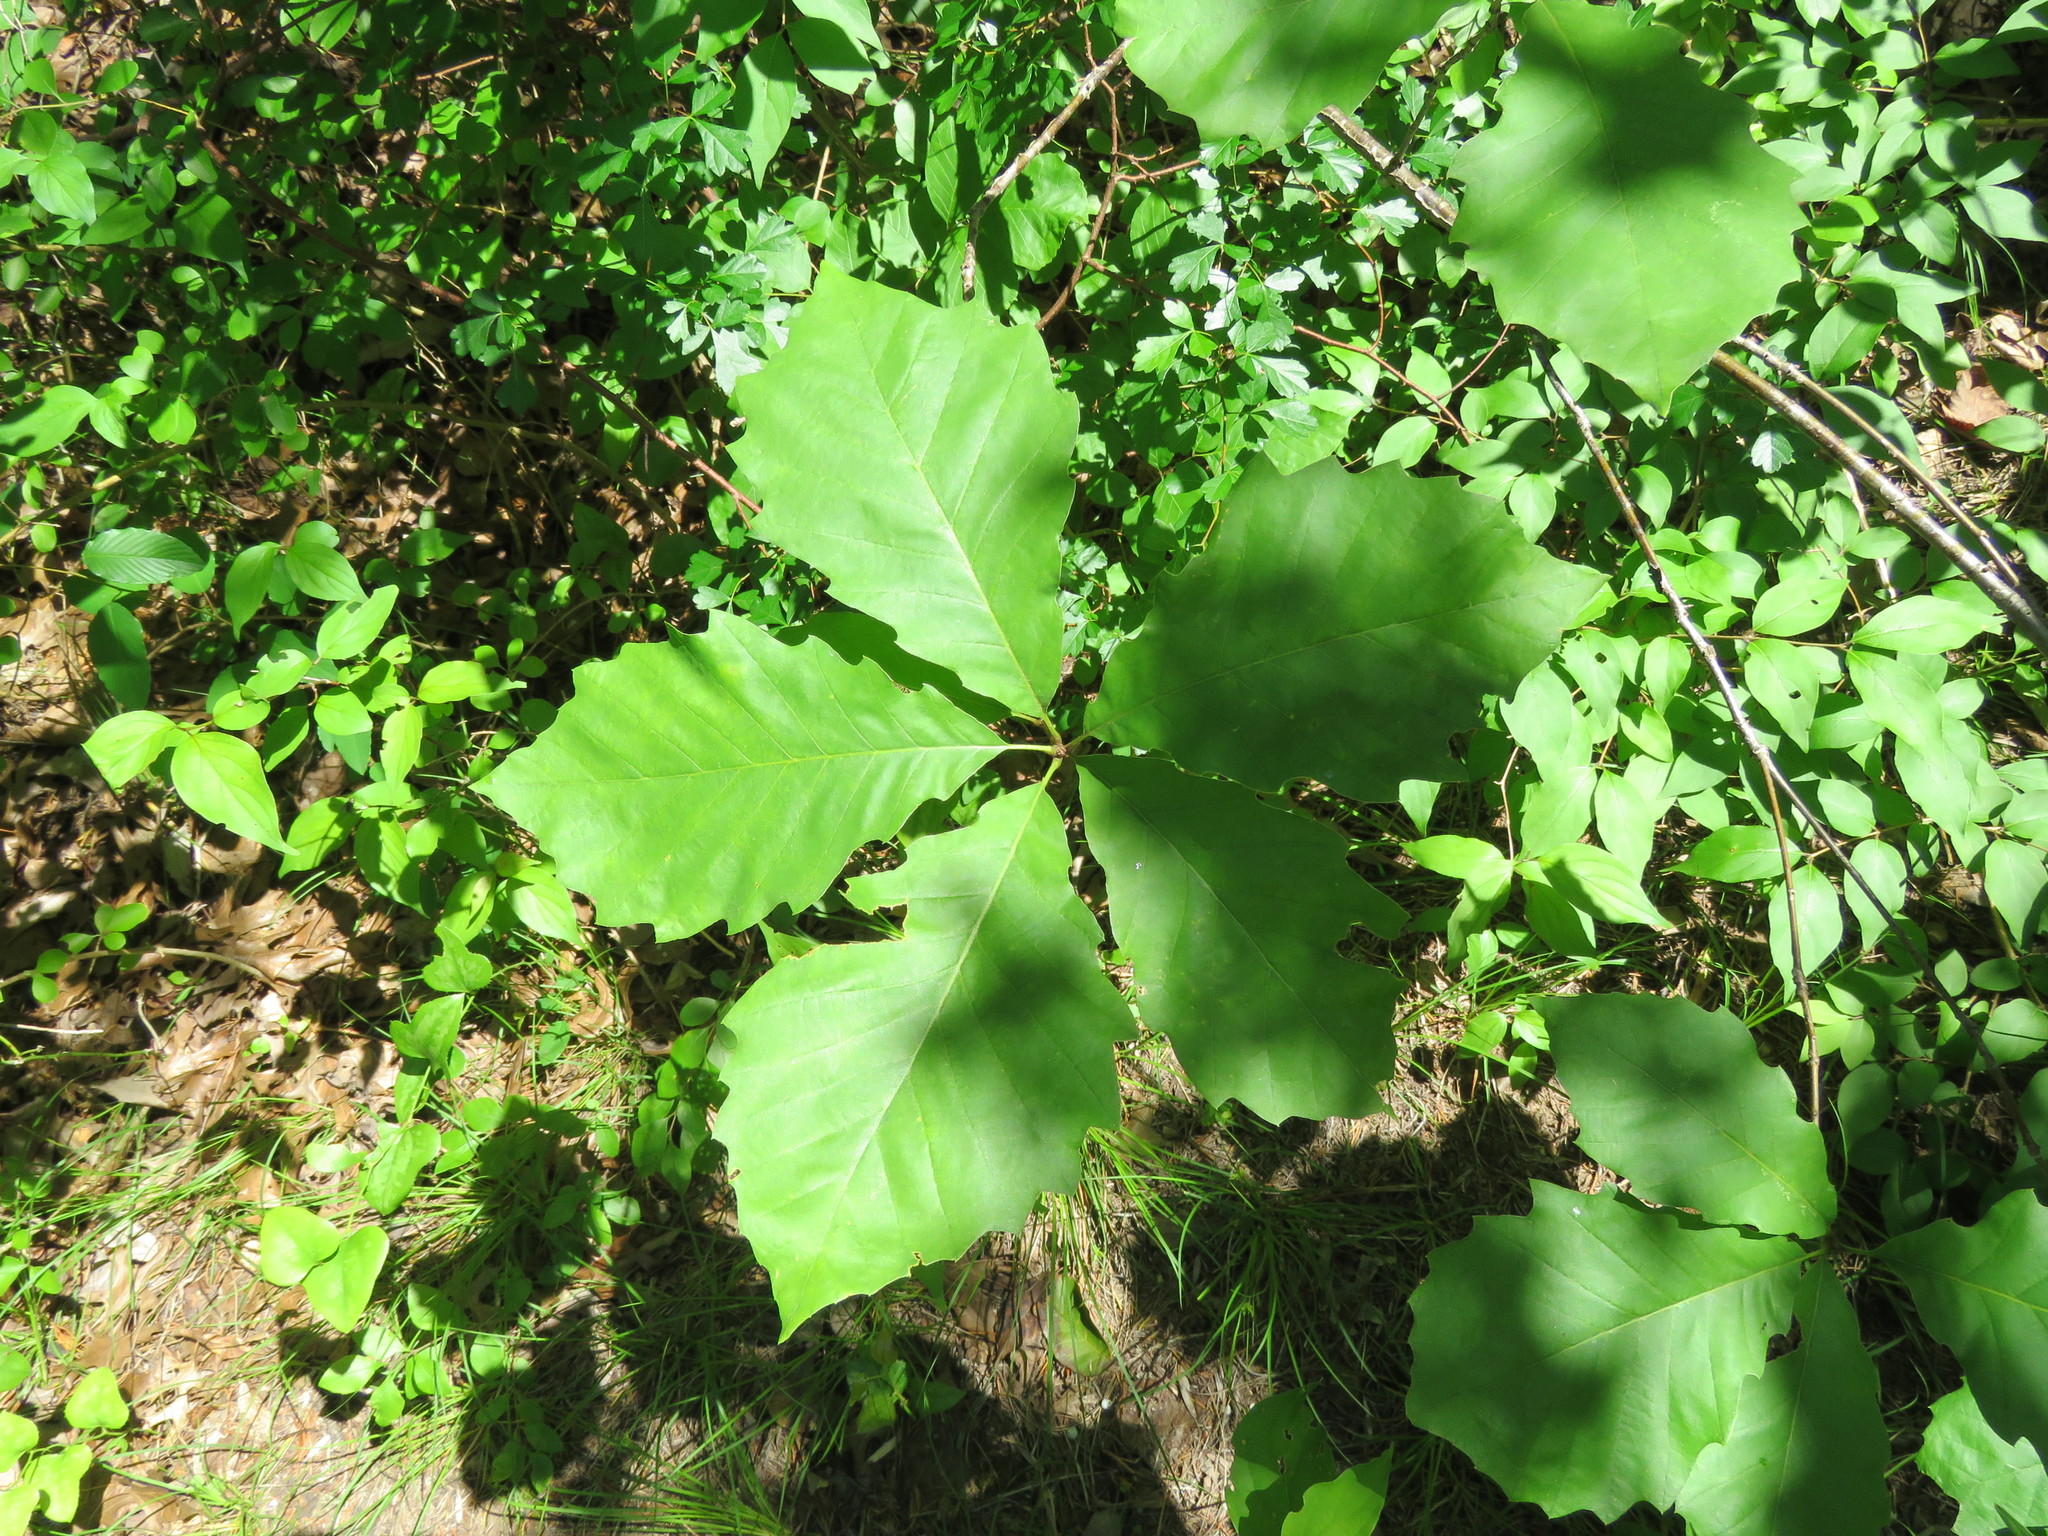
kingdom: Plantae
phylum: Tracheophyta
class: Magnoliopsida
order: Fagales
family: Fagaceae
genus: Quercus
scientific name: Quercus muehlenbergii
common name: Chinkapin oak
